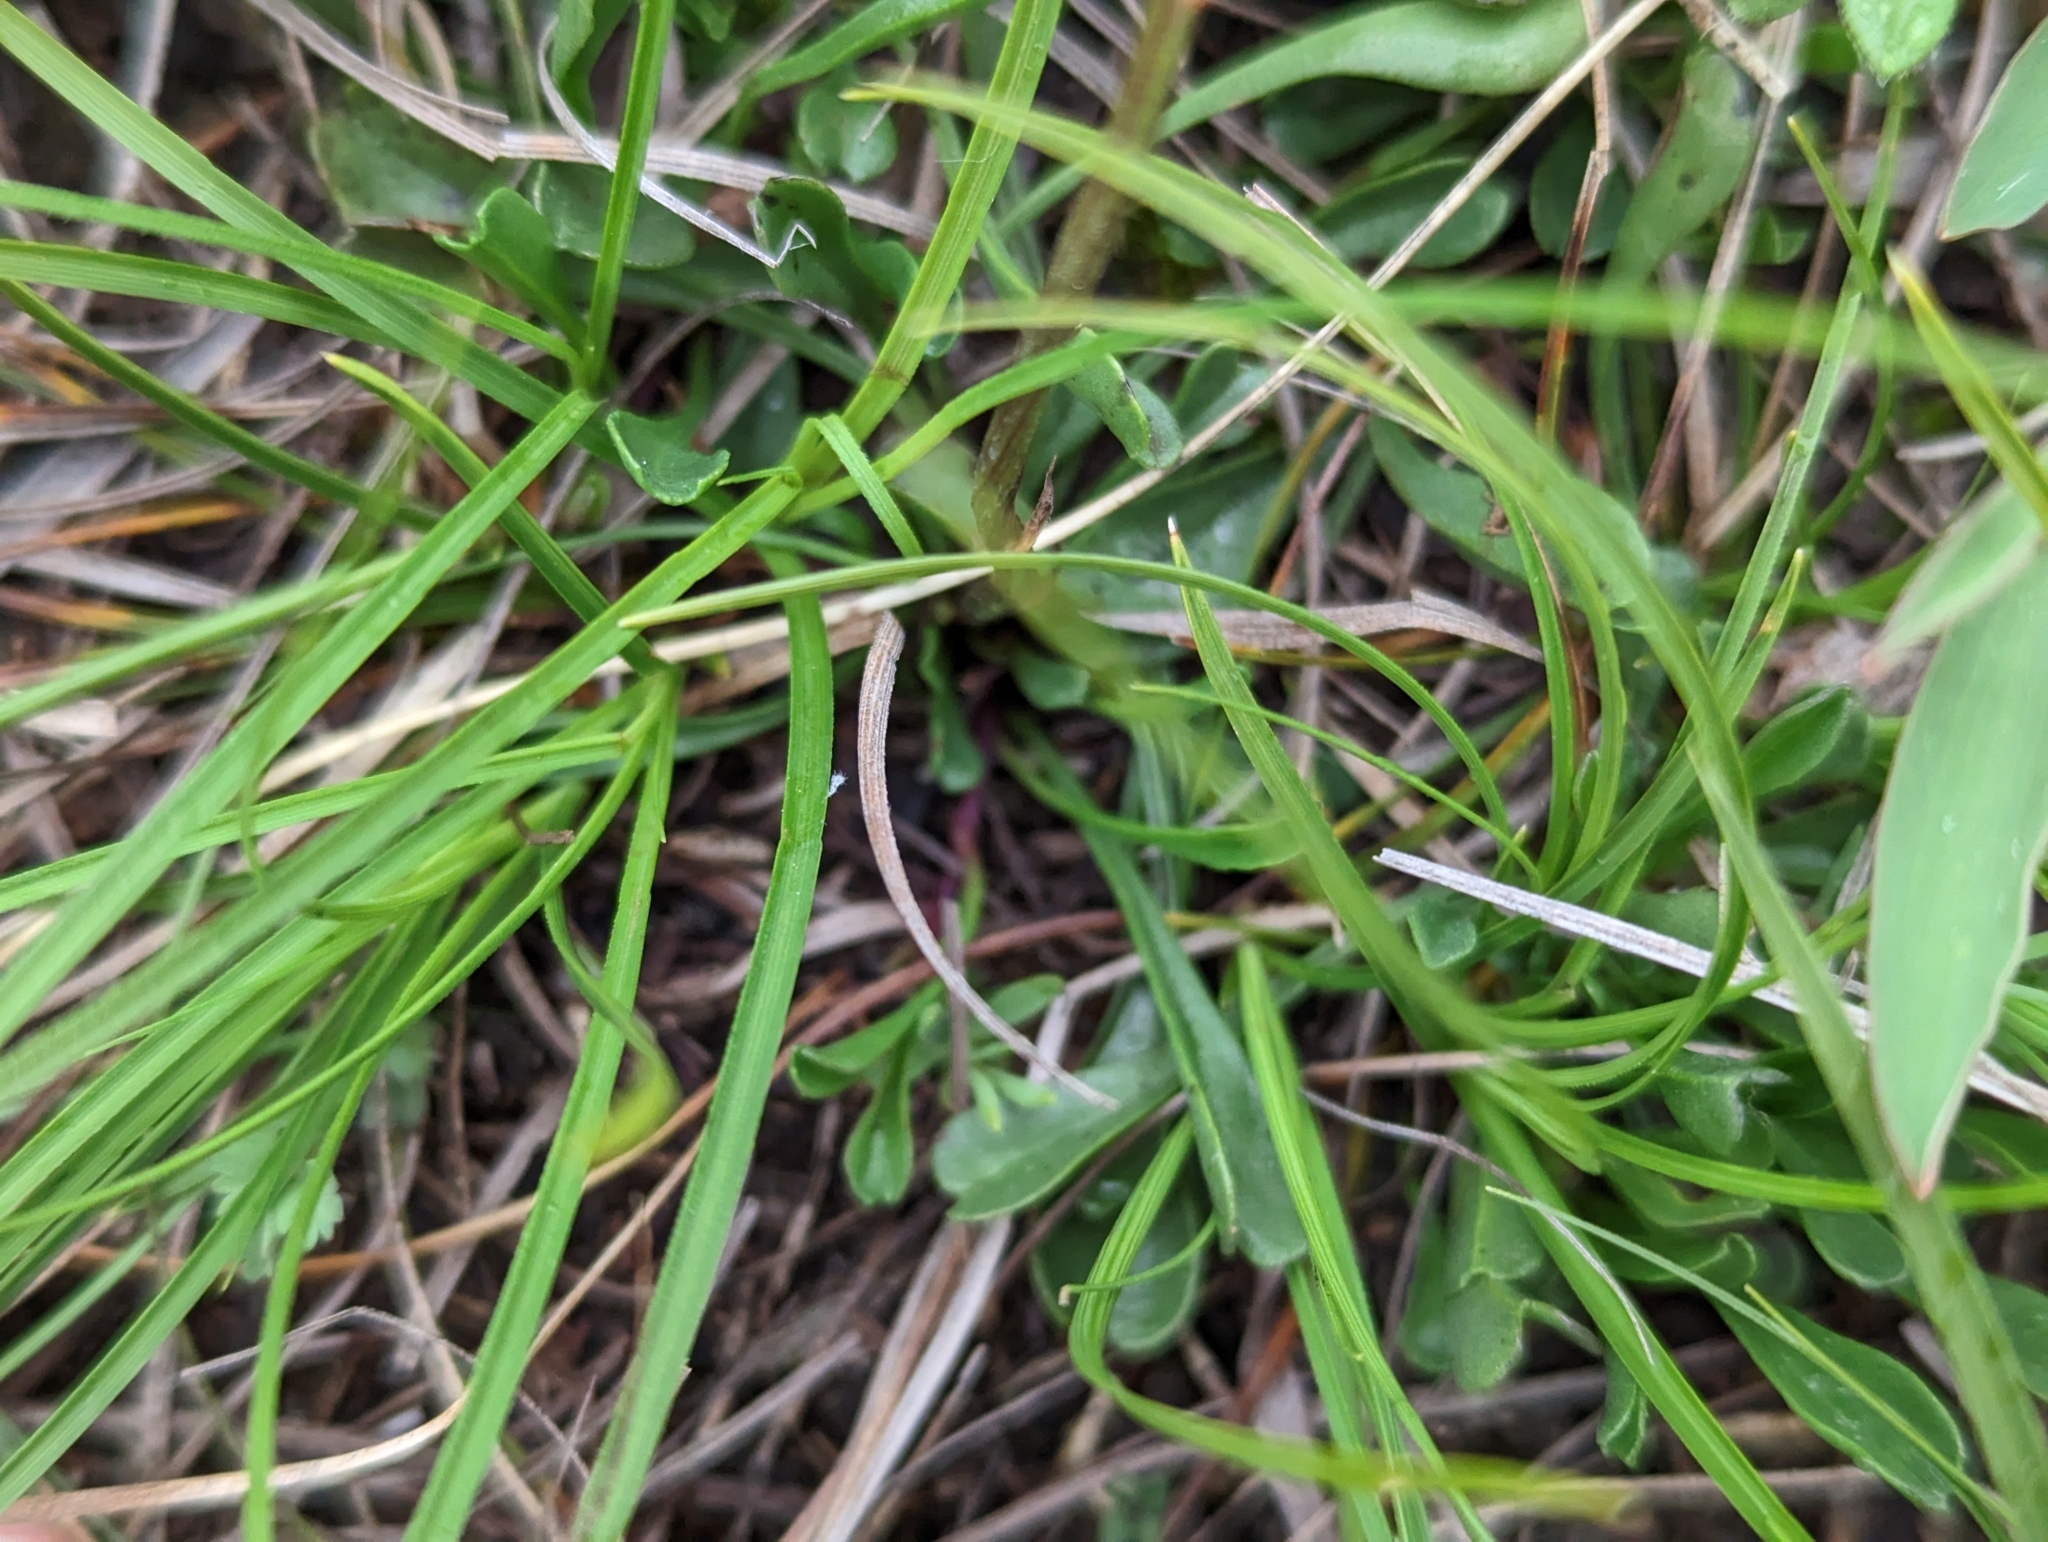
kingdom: Plantae
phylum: Tracheophyta
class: Magnoliopsida
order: Lamiales
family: Plantaginaceae
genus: Globularia
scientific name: Globularia cordifolia
